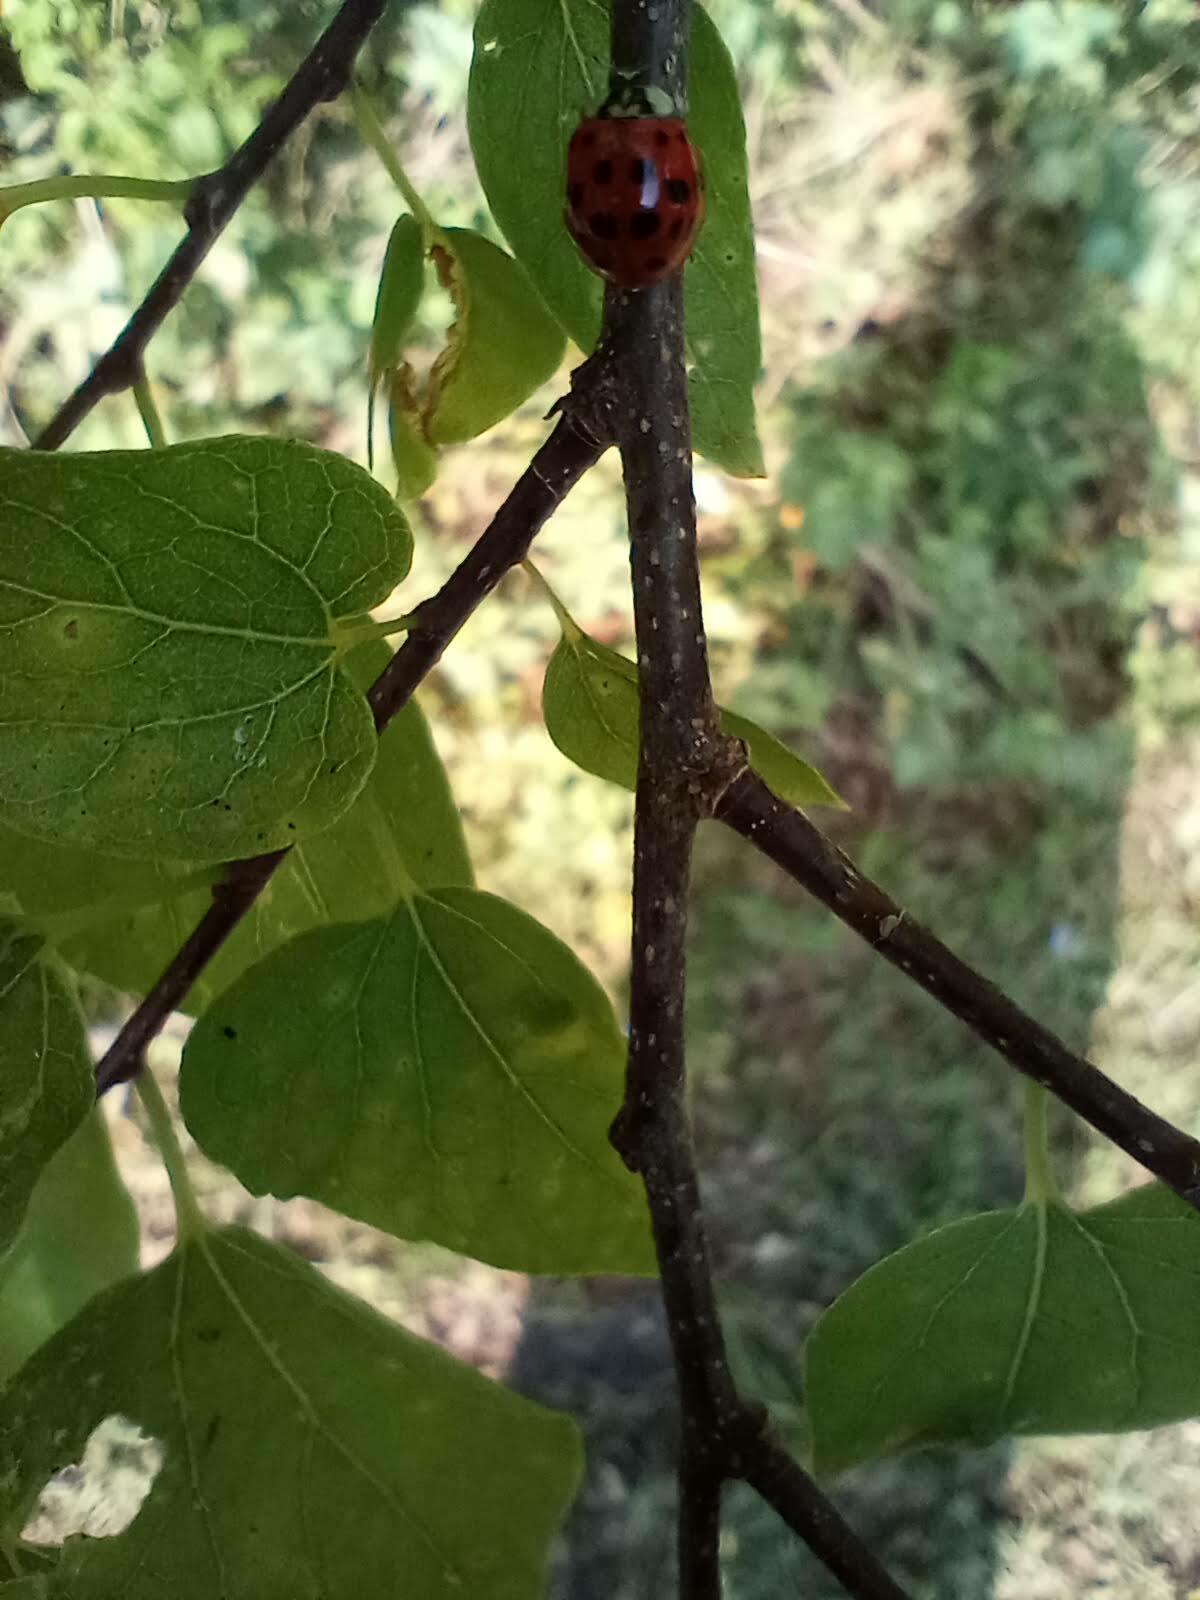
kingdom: Animalia
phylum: Arthropoda
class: Insecta
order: Coleoptera
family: Coccinellidae
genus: Harmonia
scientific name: Harmonia axyridis
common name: Harlequin ladybird
